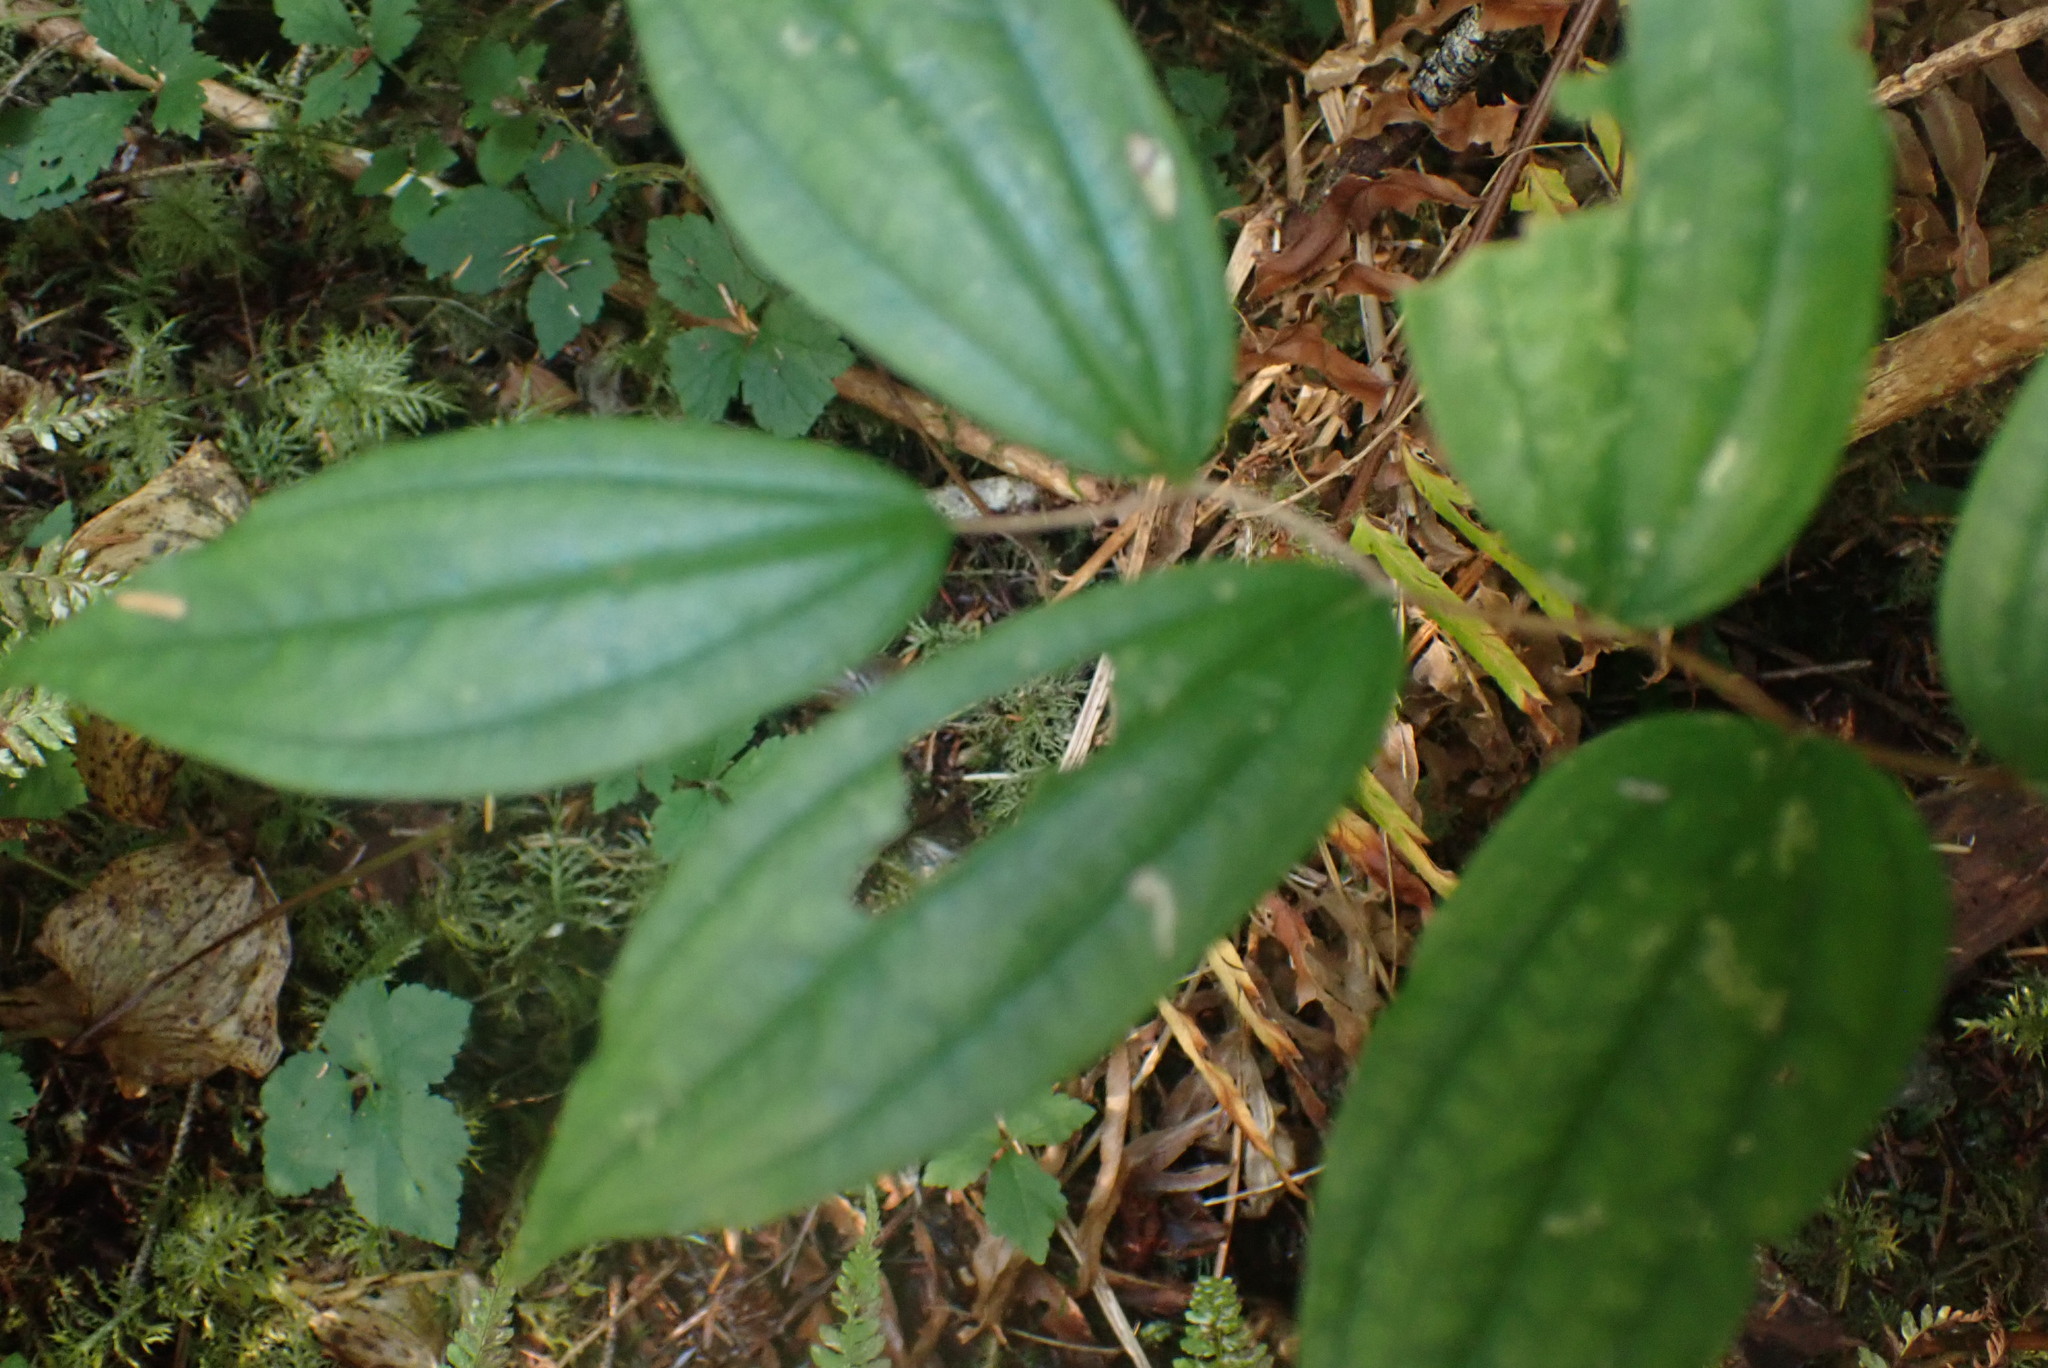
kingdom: Plantae
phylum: Tracheophyta
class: Liliopsida
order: Liliales
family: Liliaceae
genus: Prosartes
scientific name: Prosartes smithii
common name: Fairy-lantern
